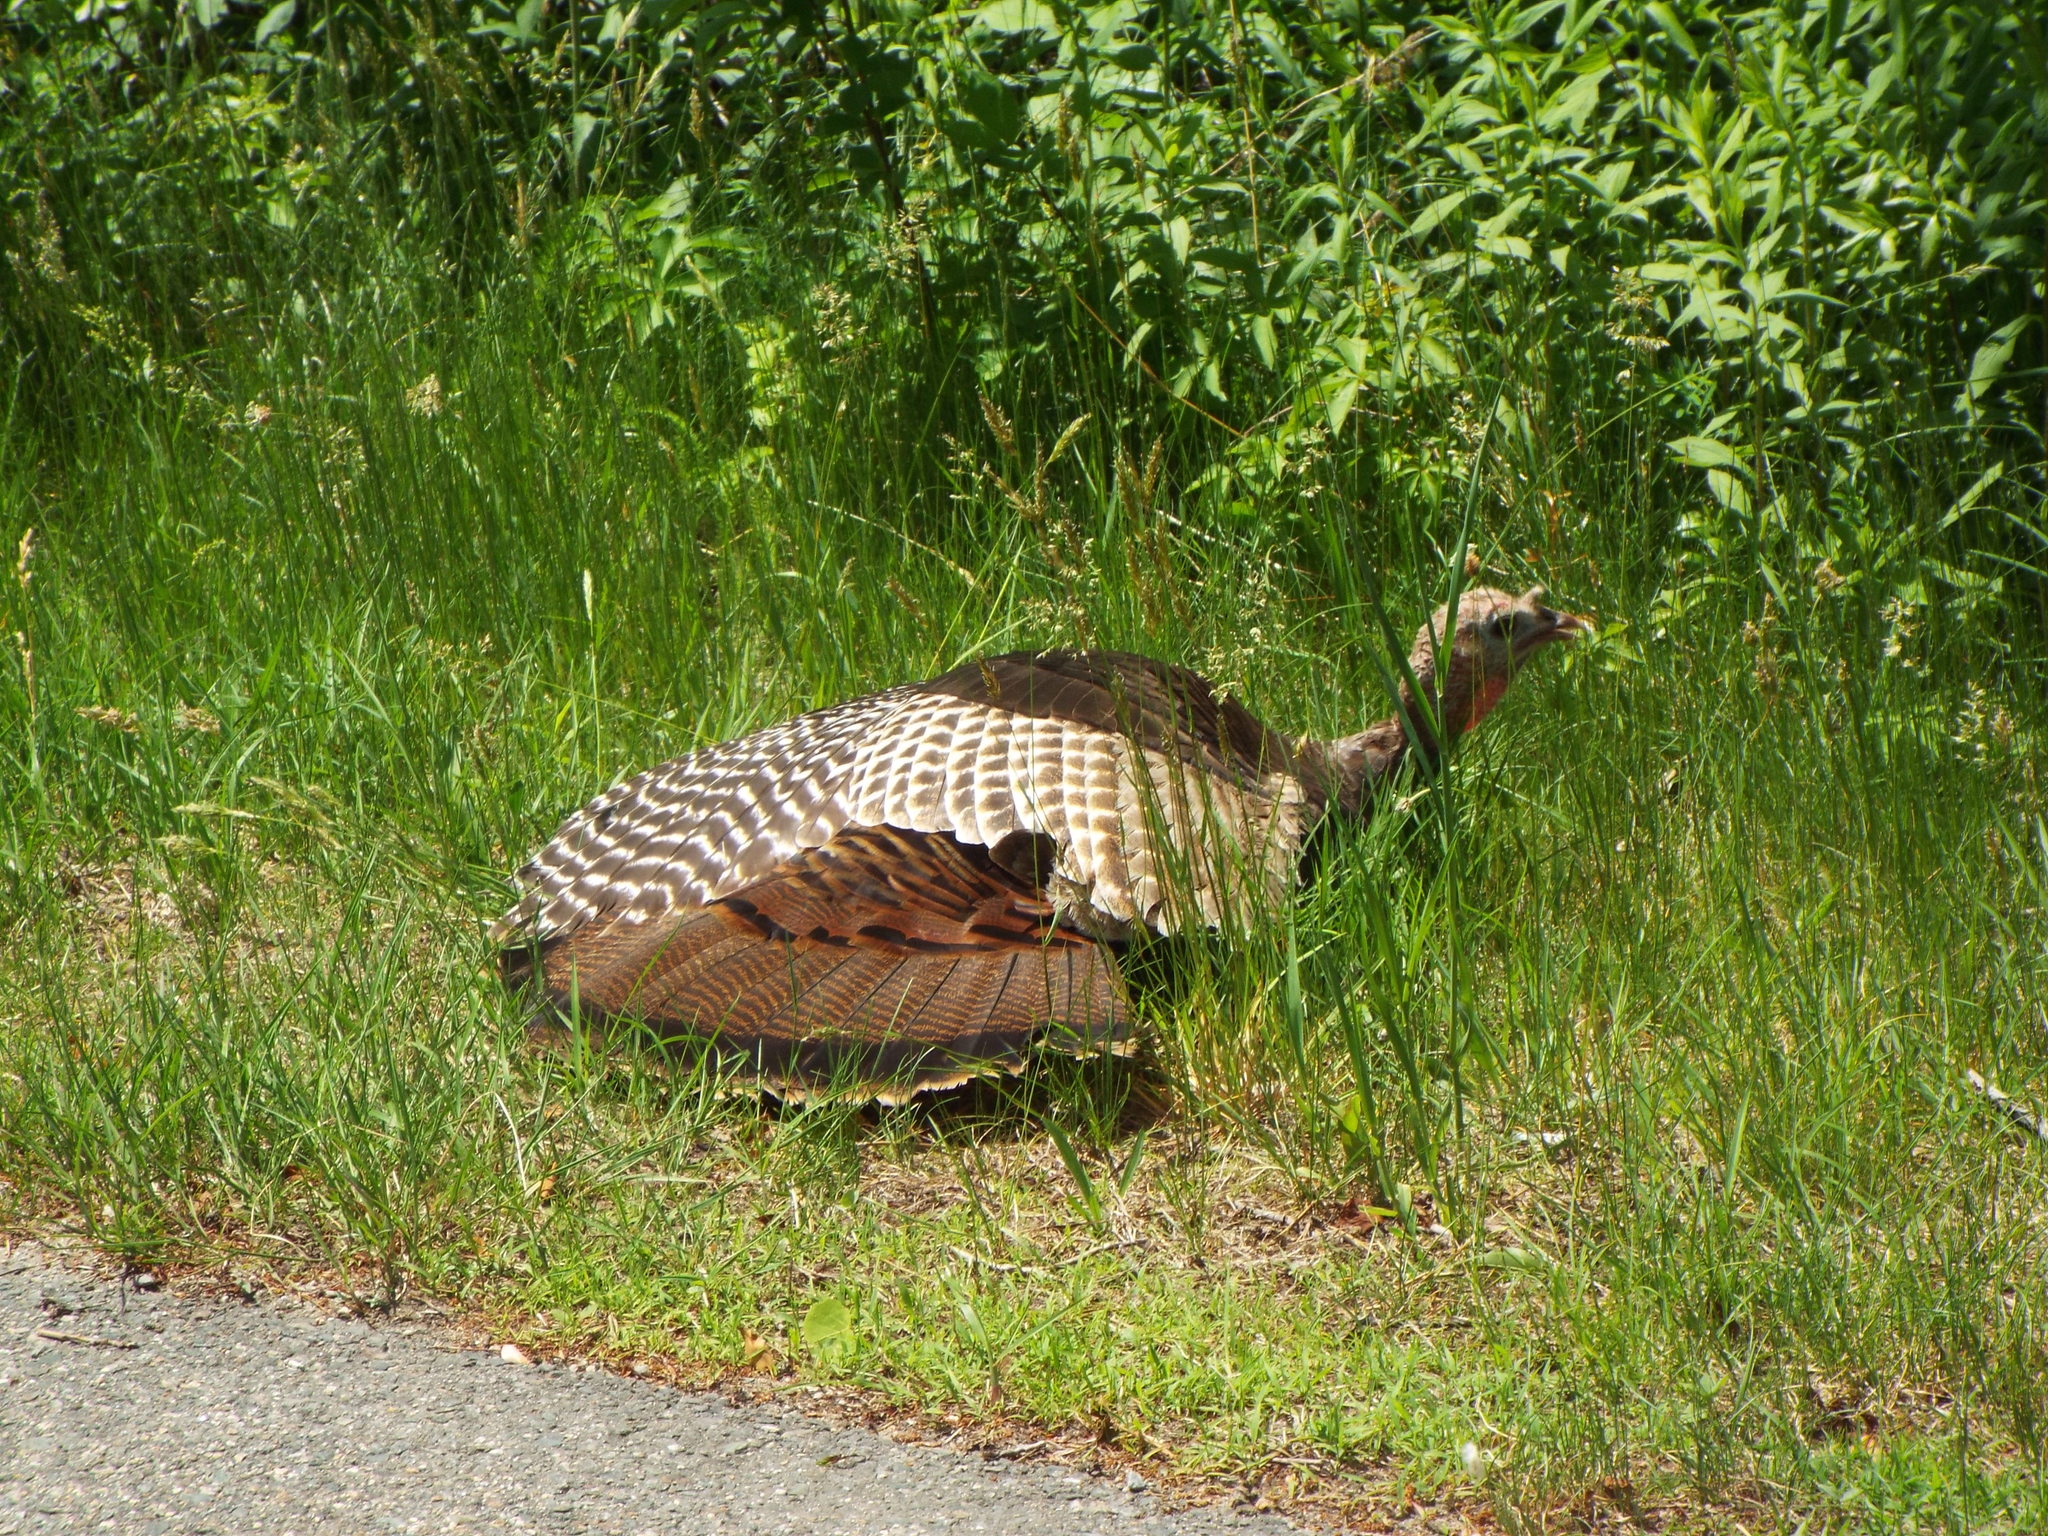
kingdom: Animalia
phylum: Chordata
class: Aves
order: Galliformes
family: Phasianidae
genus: Meleagris
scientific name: Meleagris gallopavo
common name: Wild turkey
